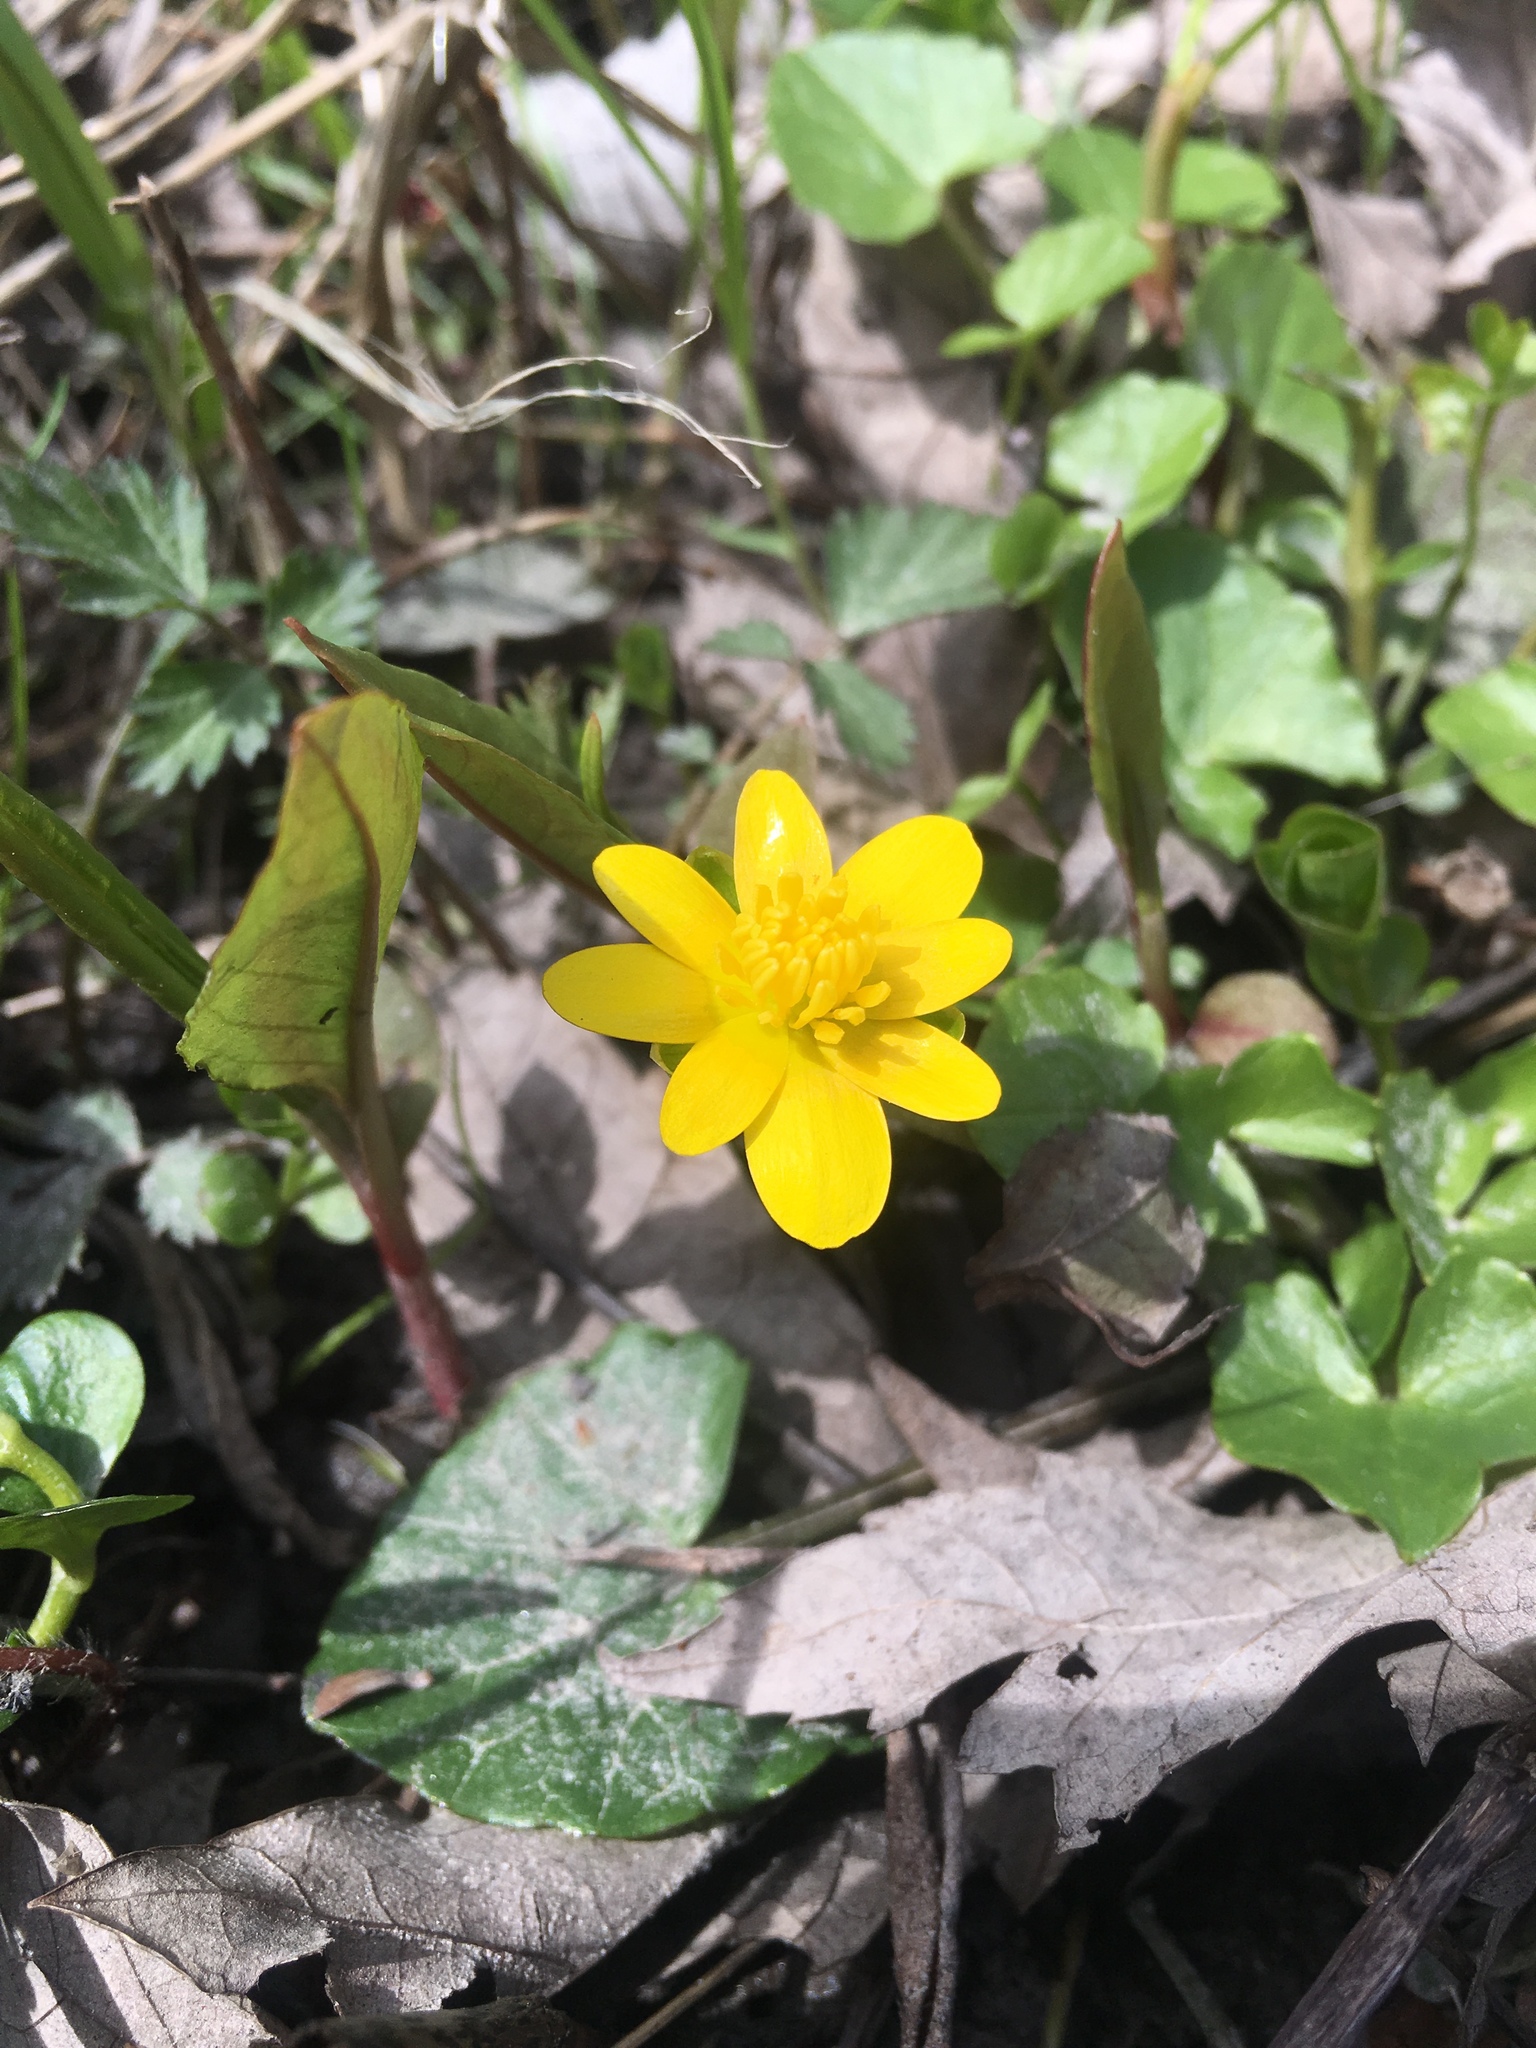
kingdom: Plantae
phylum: Tracheophyta
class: Magnoliopsida
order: Ranunculales
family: Ranunculaceae
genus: Ficaria
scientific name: Ficaria verna
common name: Lesser celandine
